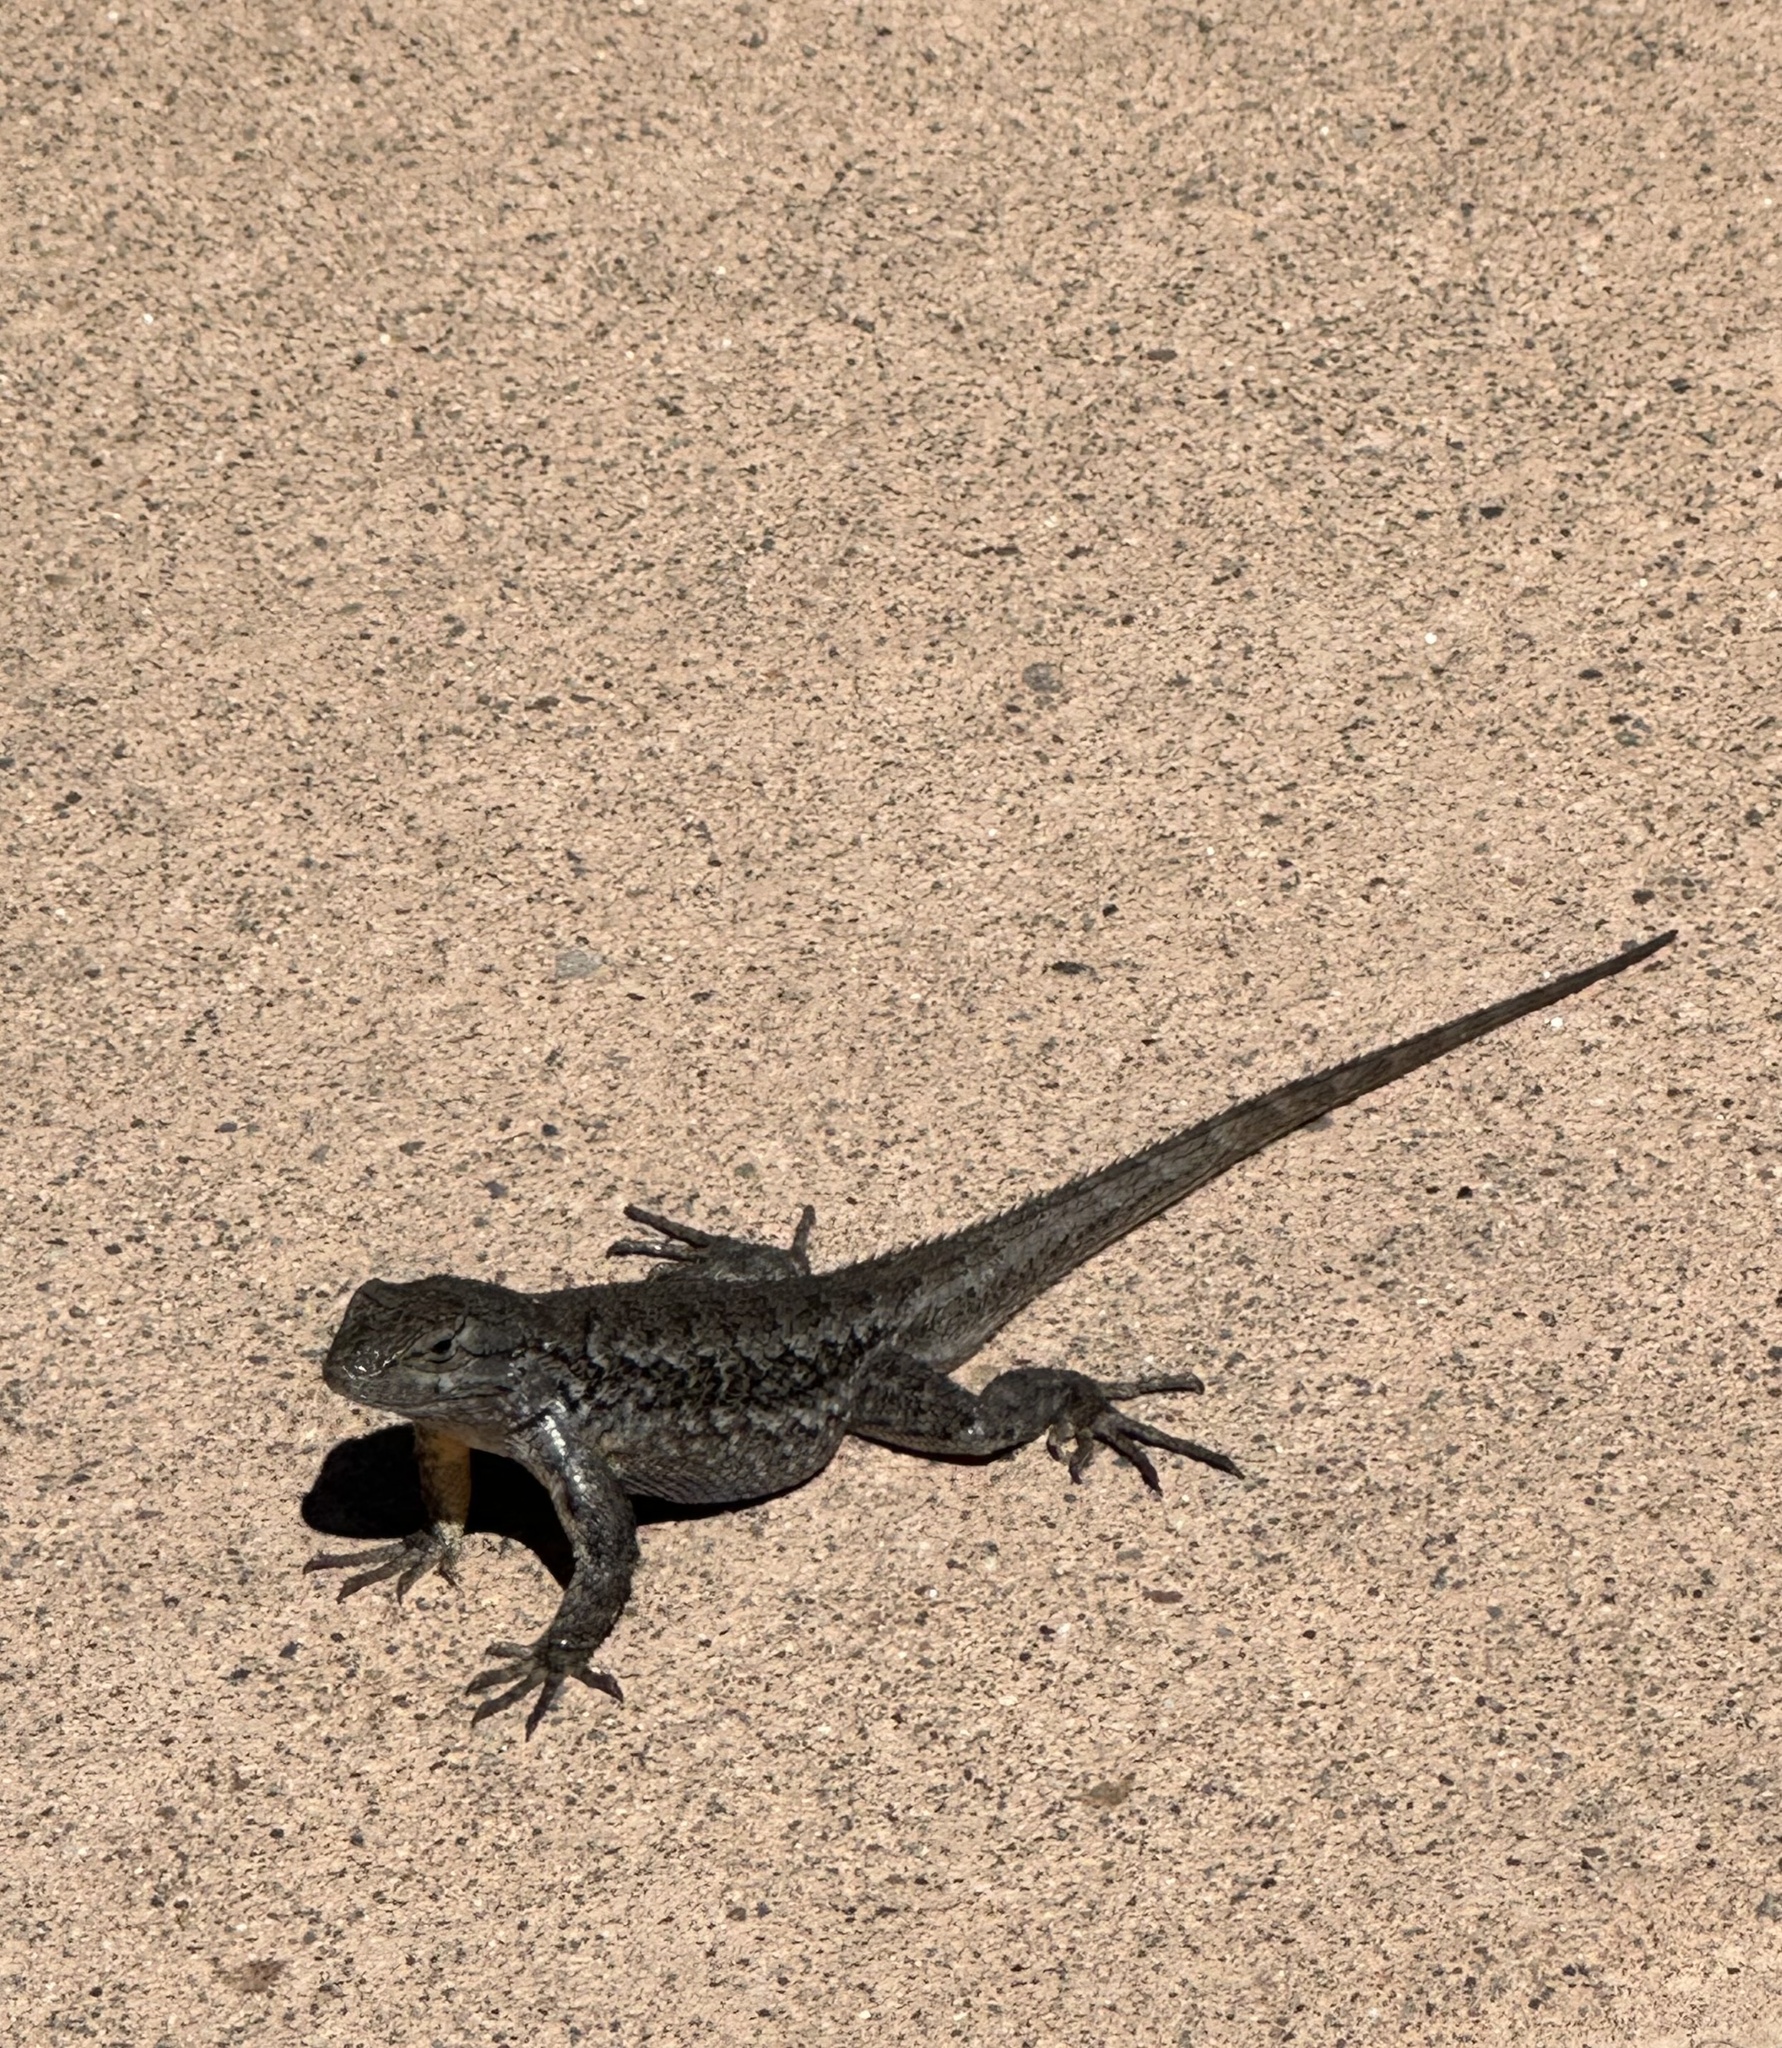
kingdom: Animalia
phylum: Chordata
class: Squamata
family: Phrynosomatidae
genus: Sceloporus
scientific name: Sceloporus occidentalis
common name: Western fence lizard
